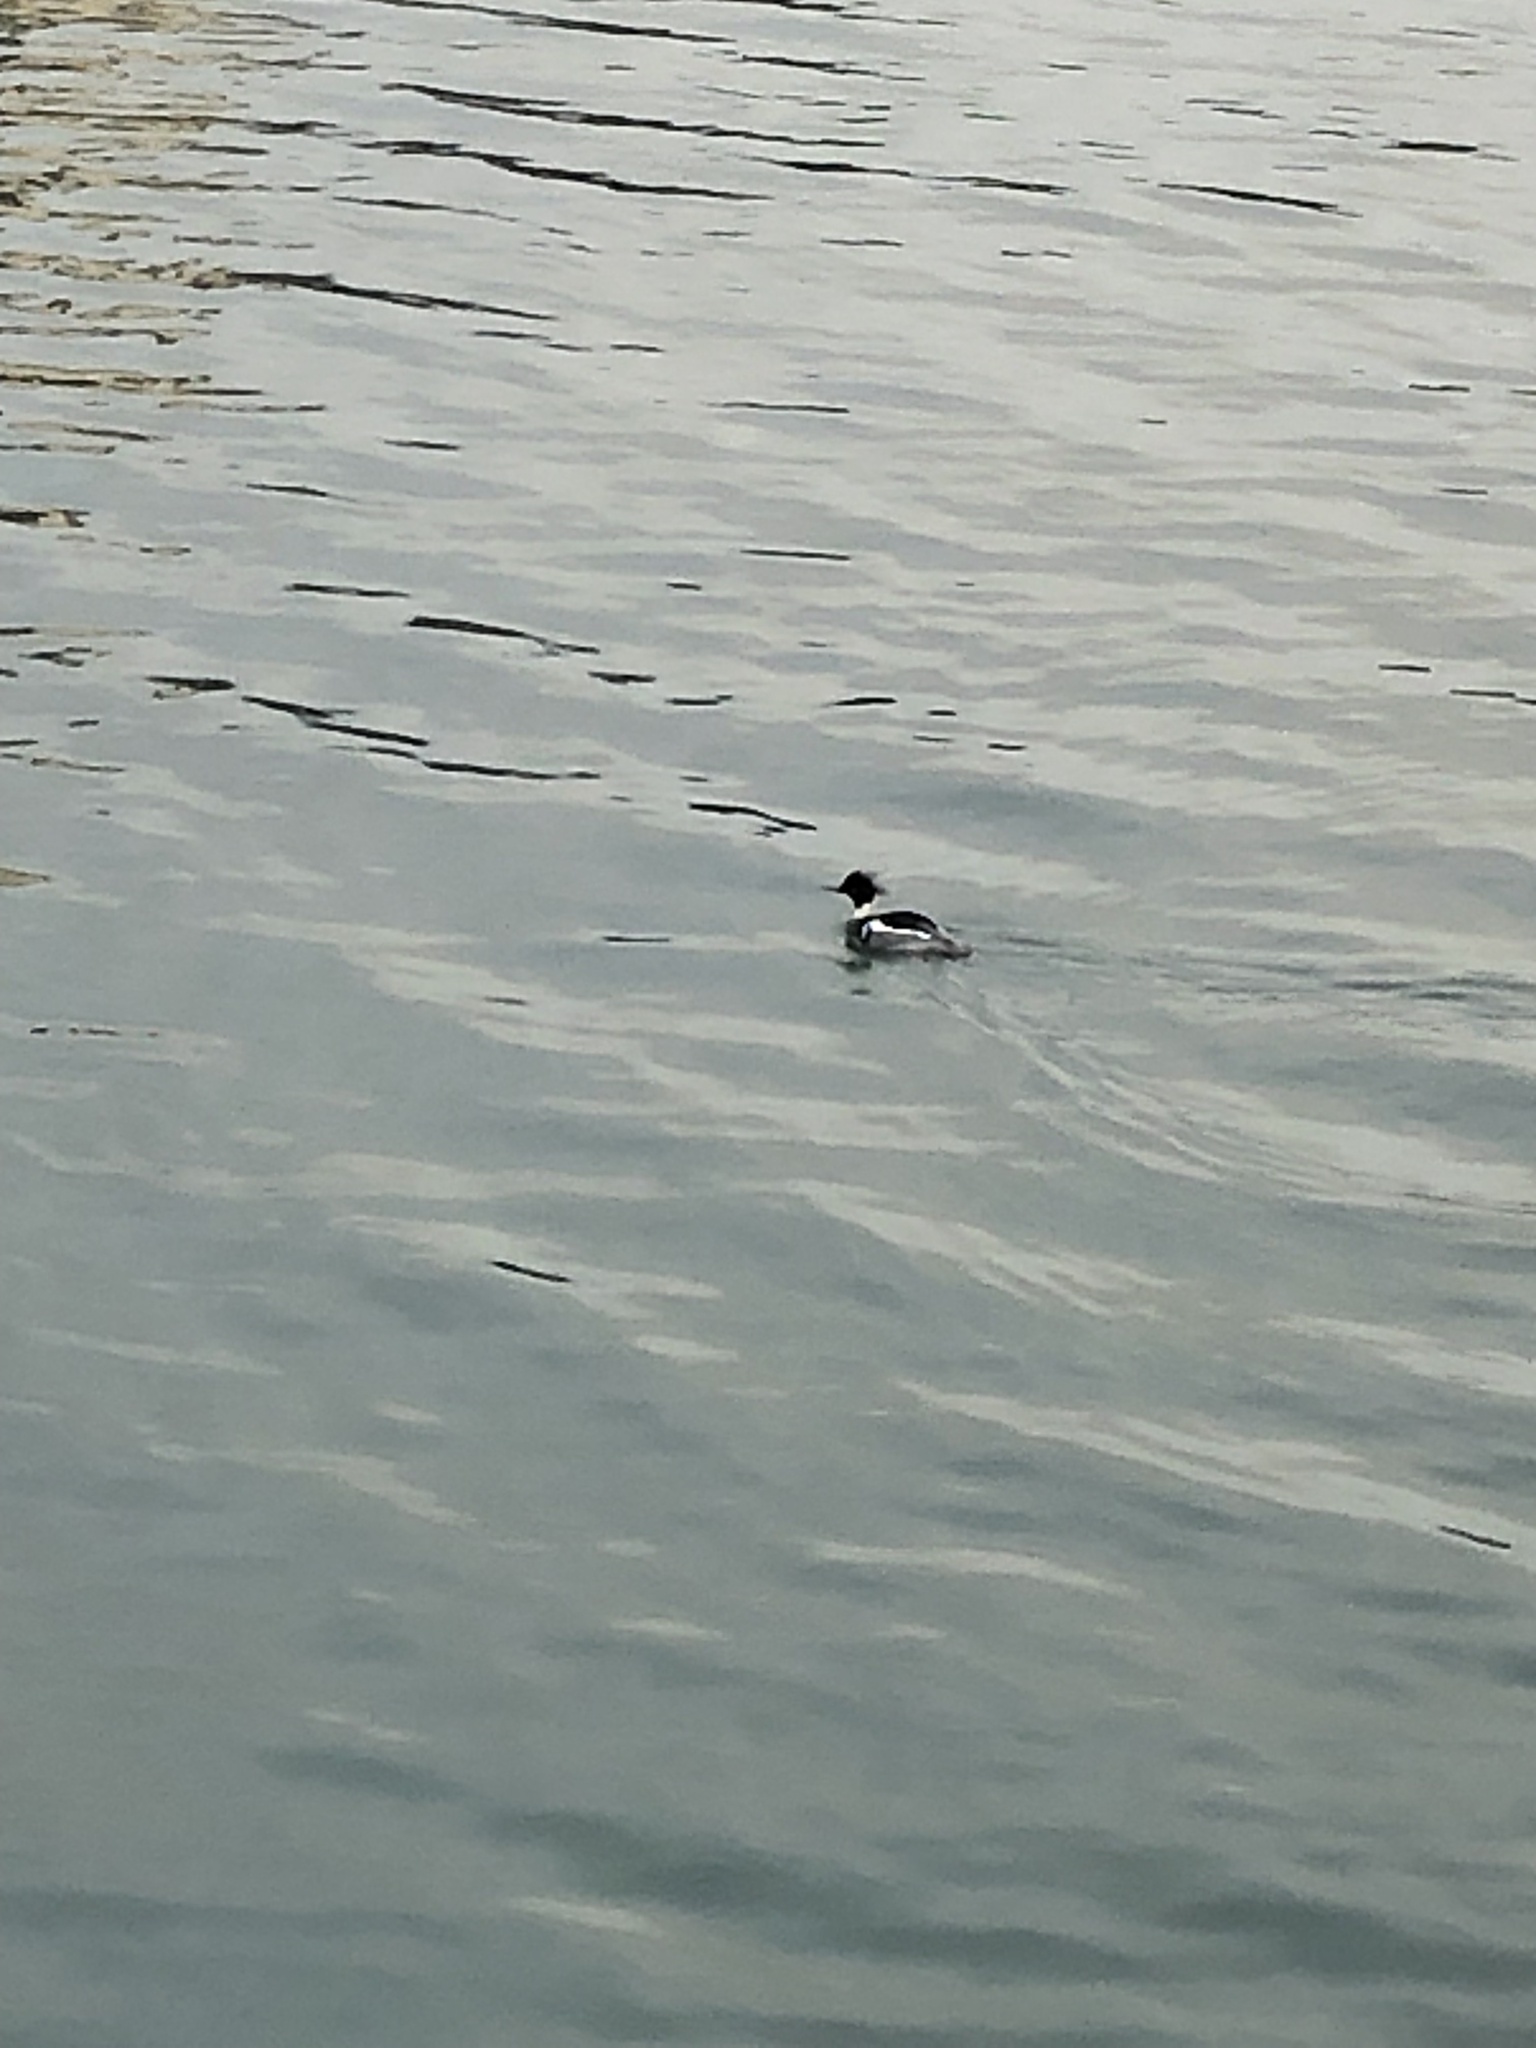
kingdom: Animalia
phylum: Chordata
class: Aves
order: Anseriformes
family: Anatidae
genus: Mergus
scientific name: Mergus serrator
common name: Red-breasted merganser
